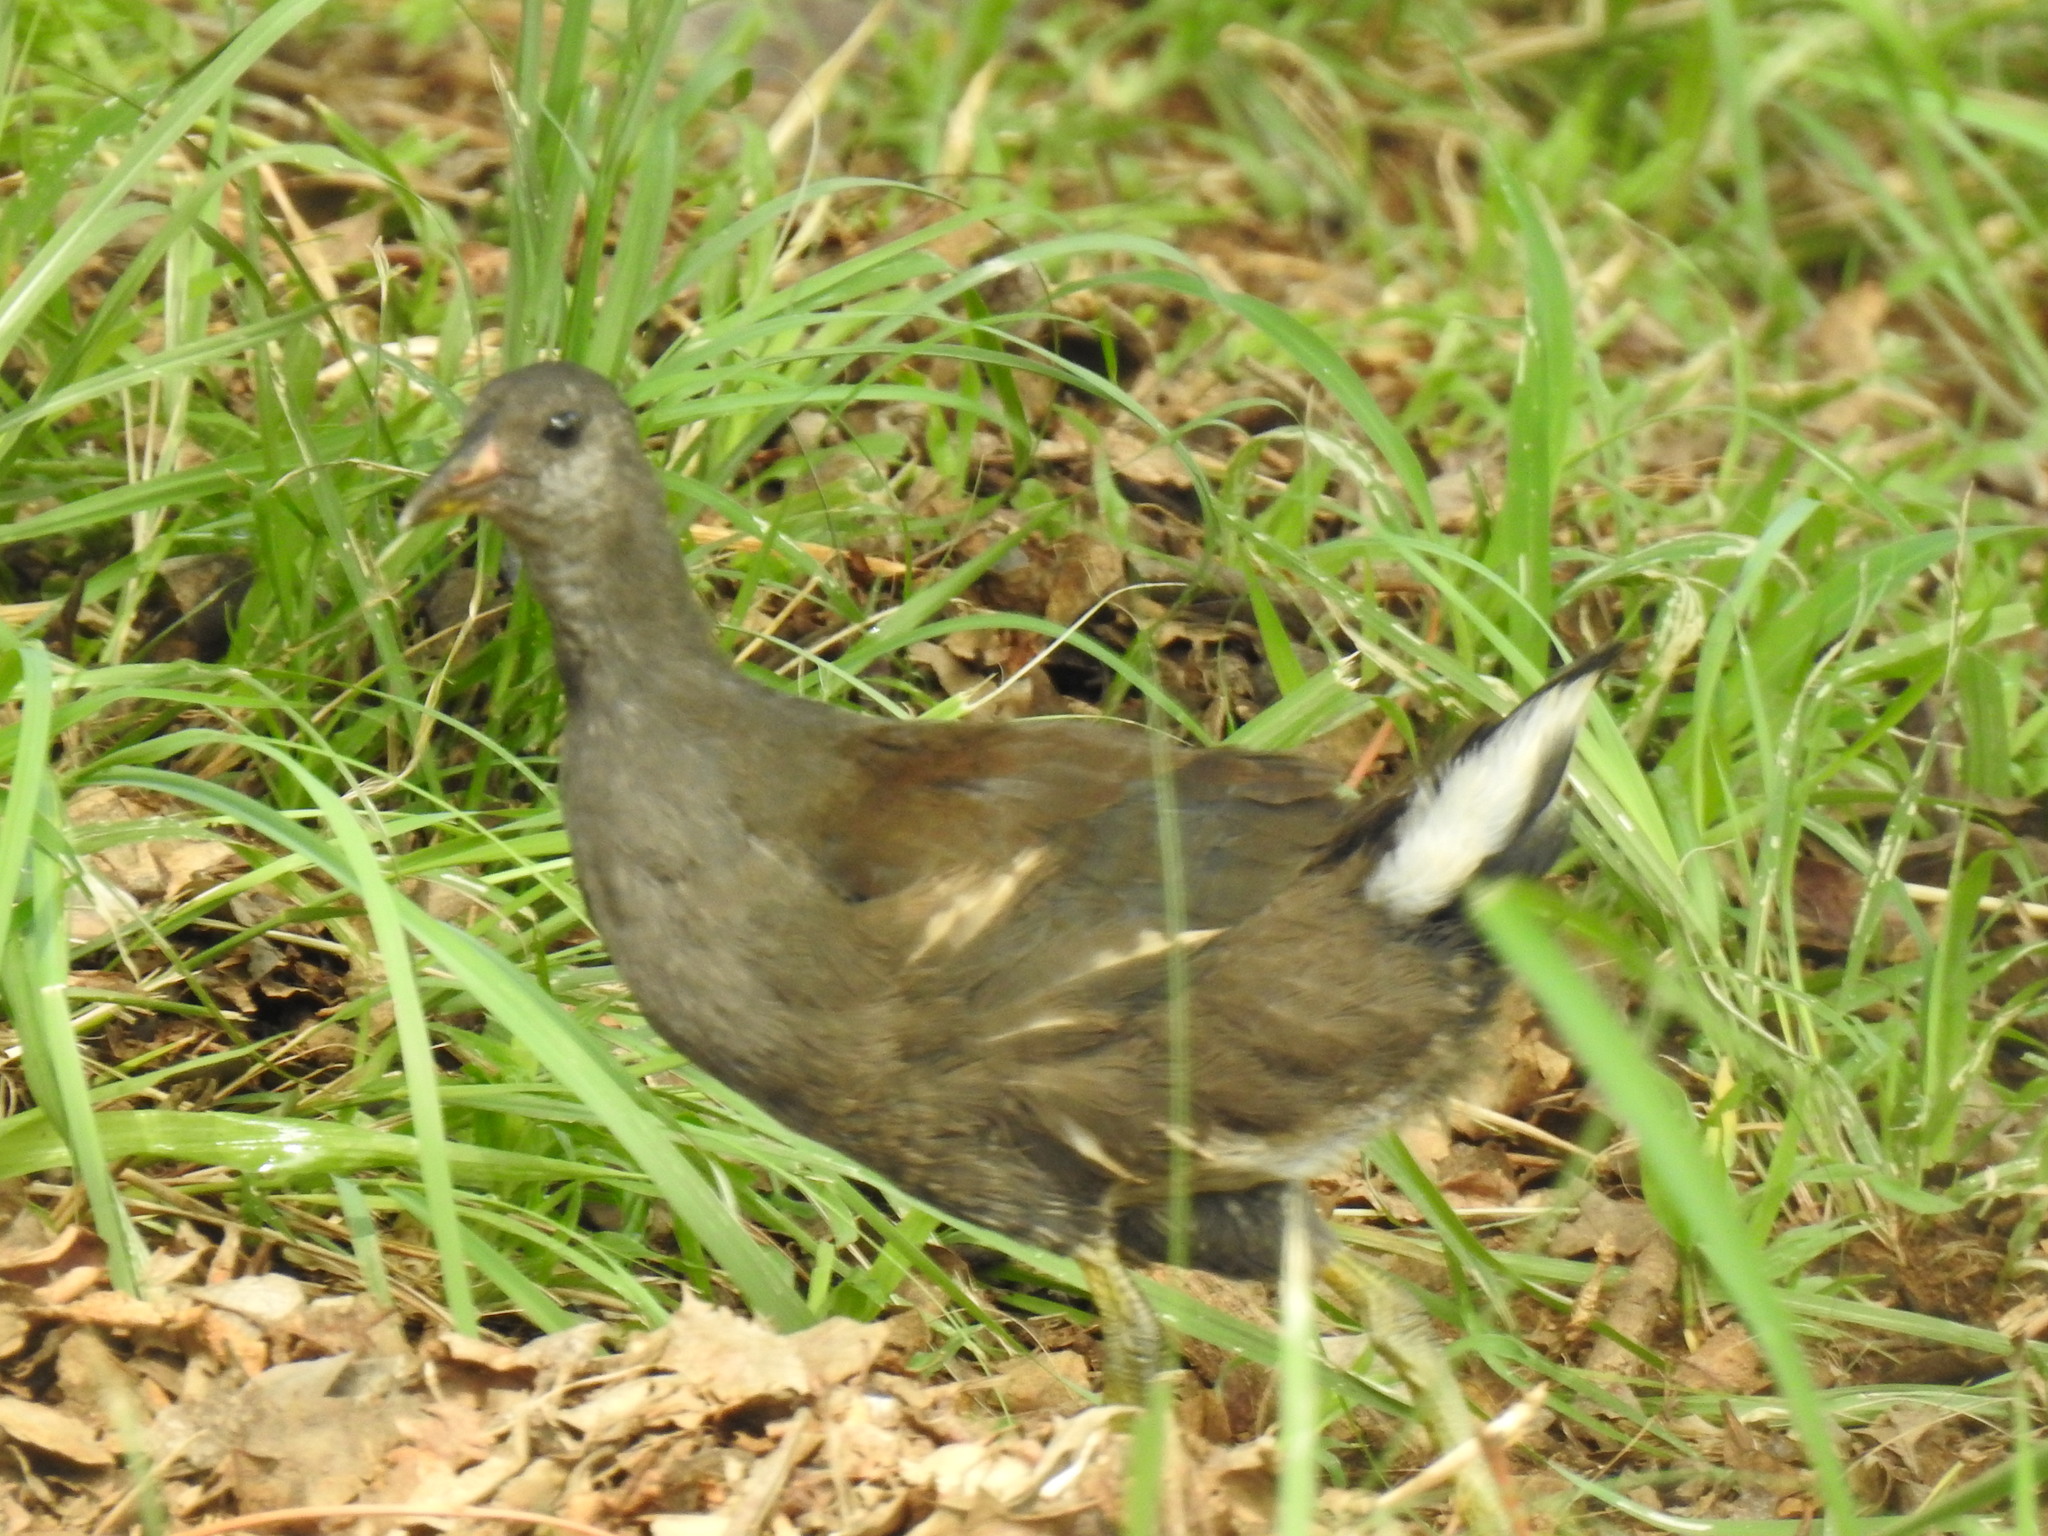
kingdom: Animalia
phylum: Chordata
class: Aves
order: Gruiformes
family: Rallidae
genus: Gallinula
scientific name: Gallinula chloropus
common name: Common moorhen
